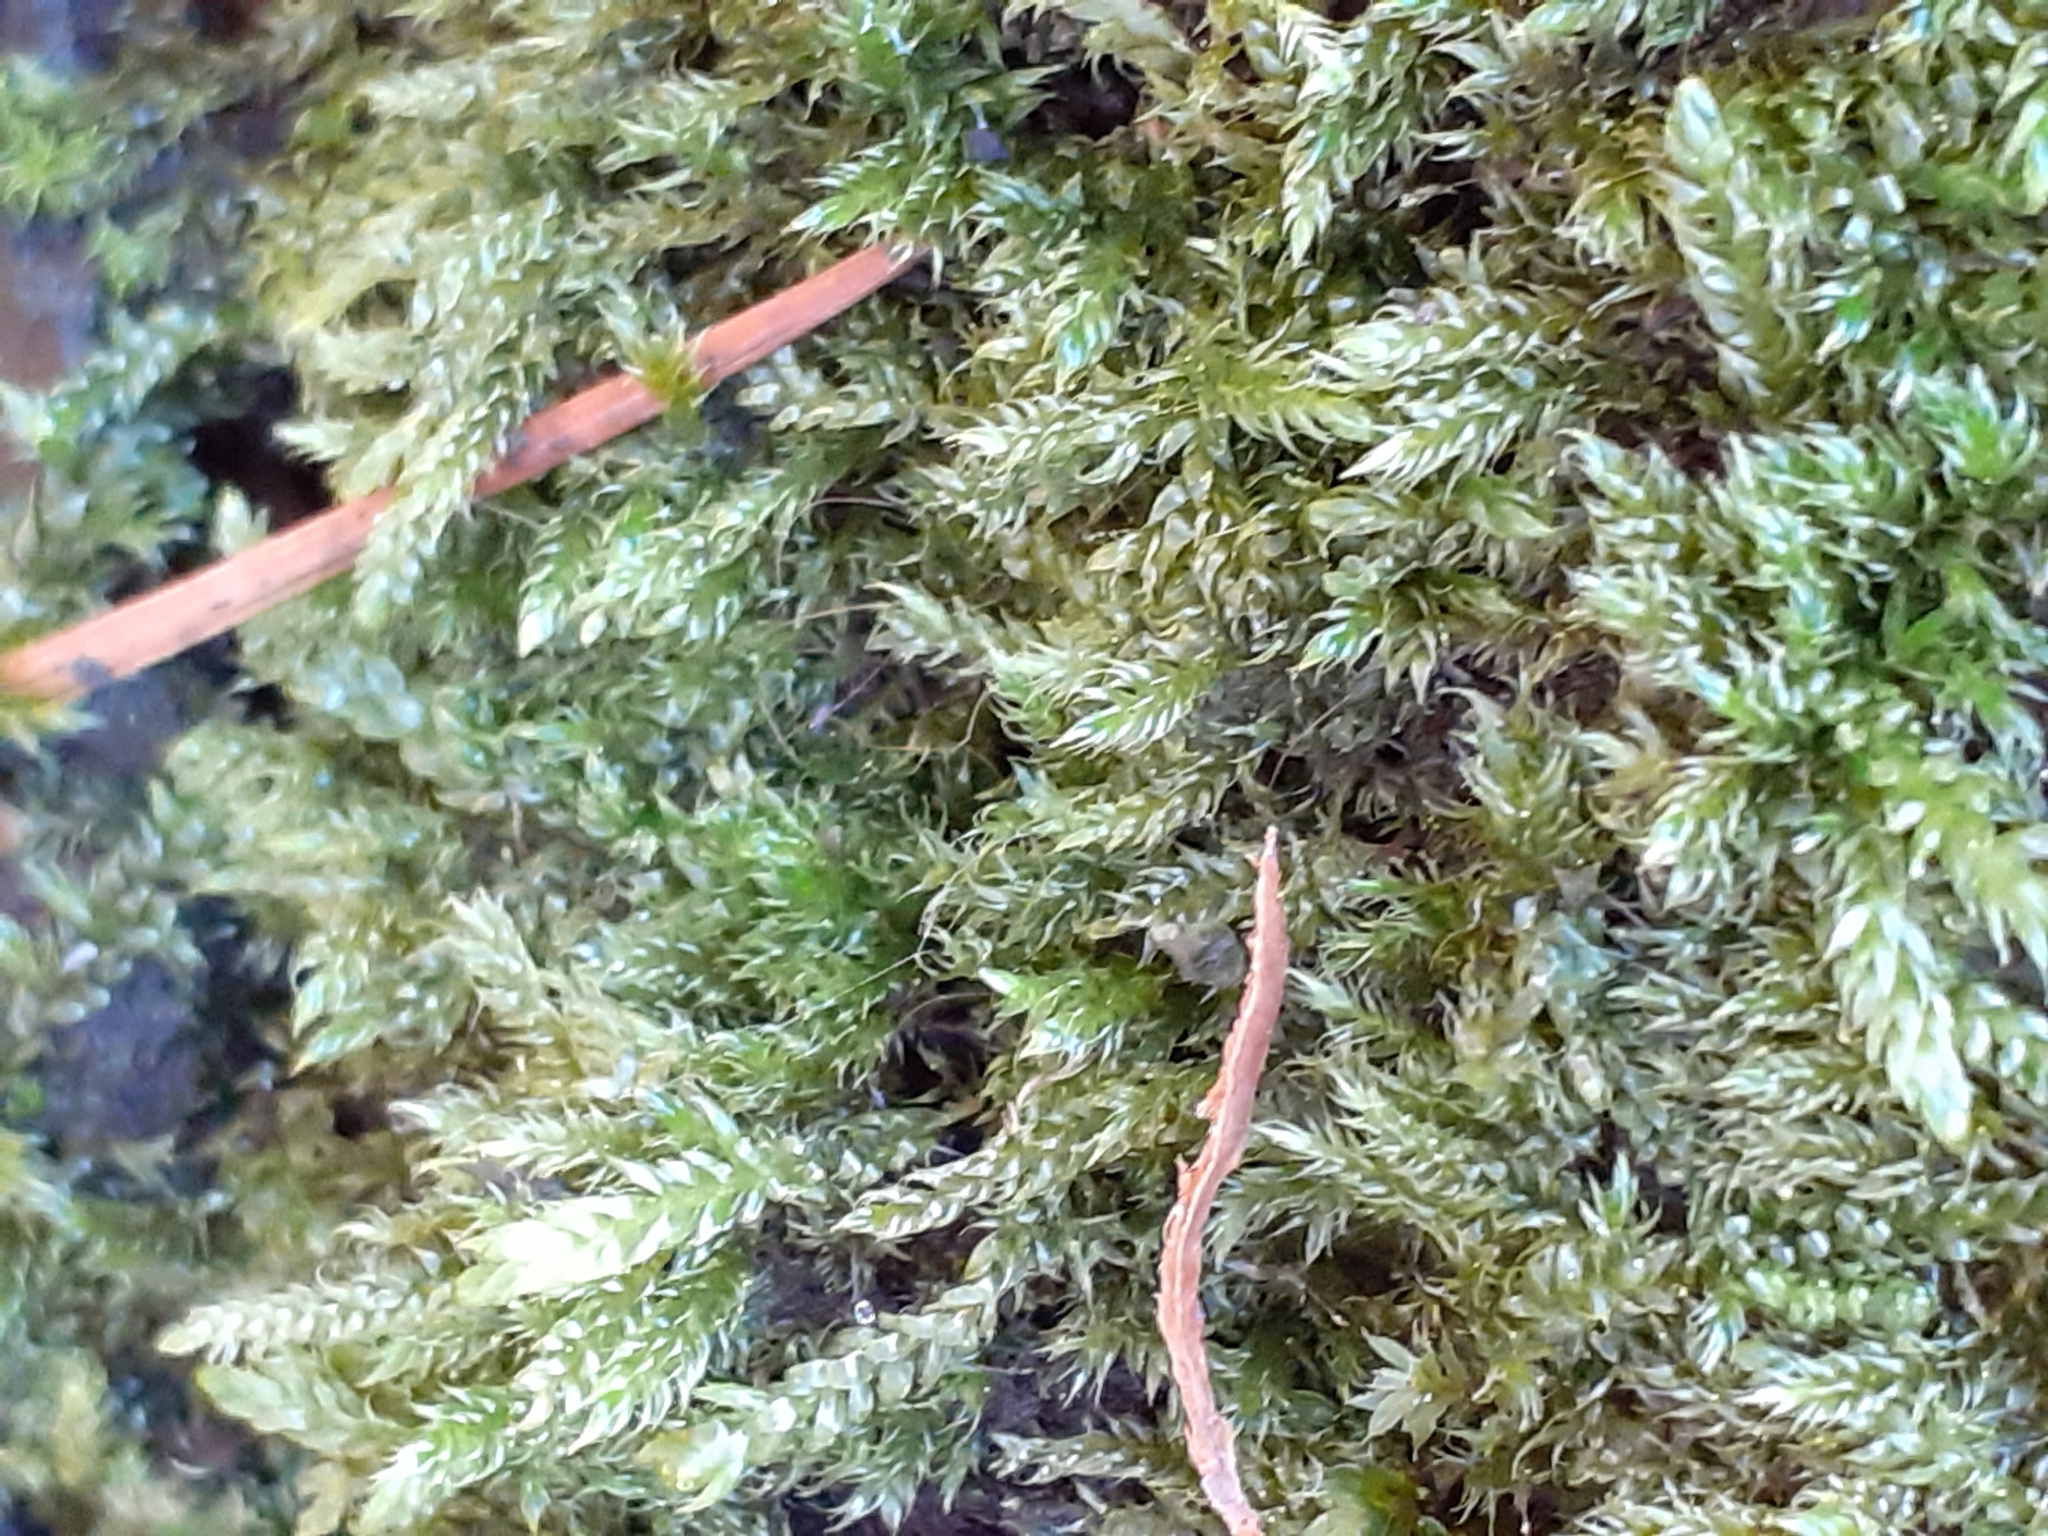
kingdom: Plantae
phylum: Bryophyta
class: Bryopsida
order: Hypnales
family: Hypnaceae
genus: Hypnum
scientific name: Hypnum cupressiforme
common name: Cypress-leaved plait-moss
